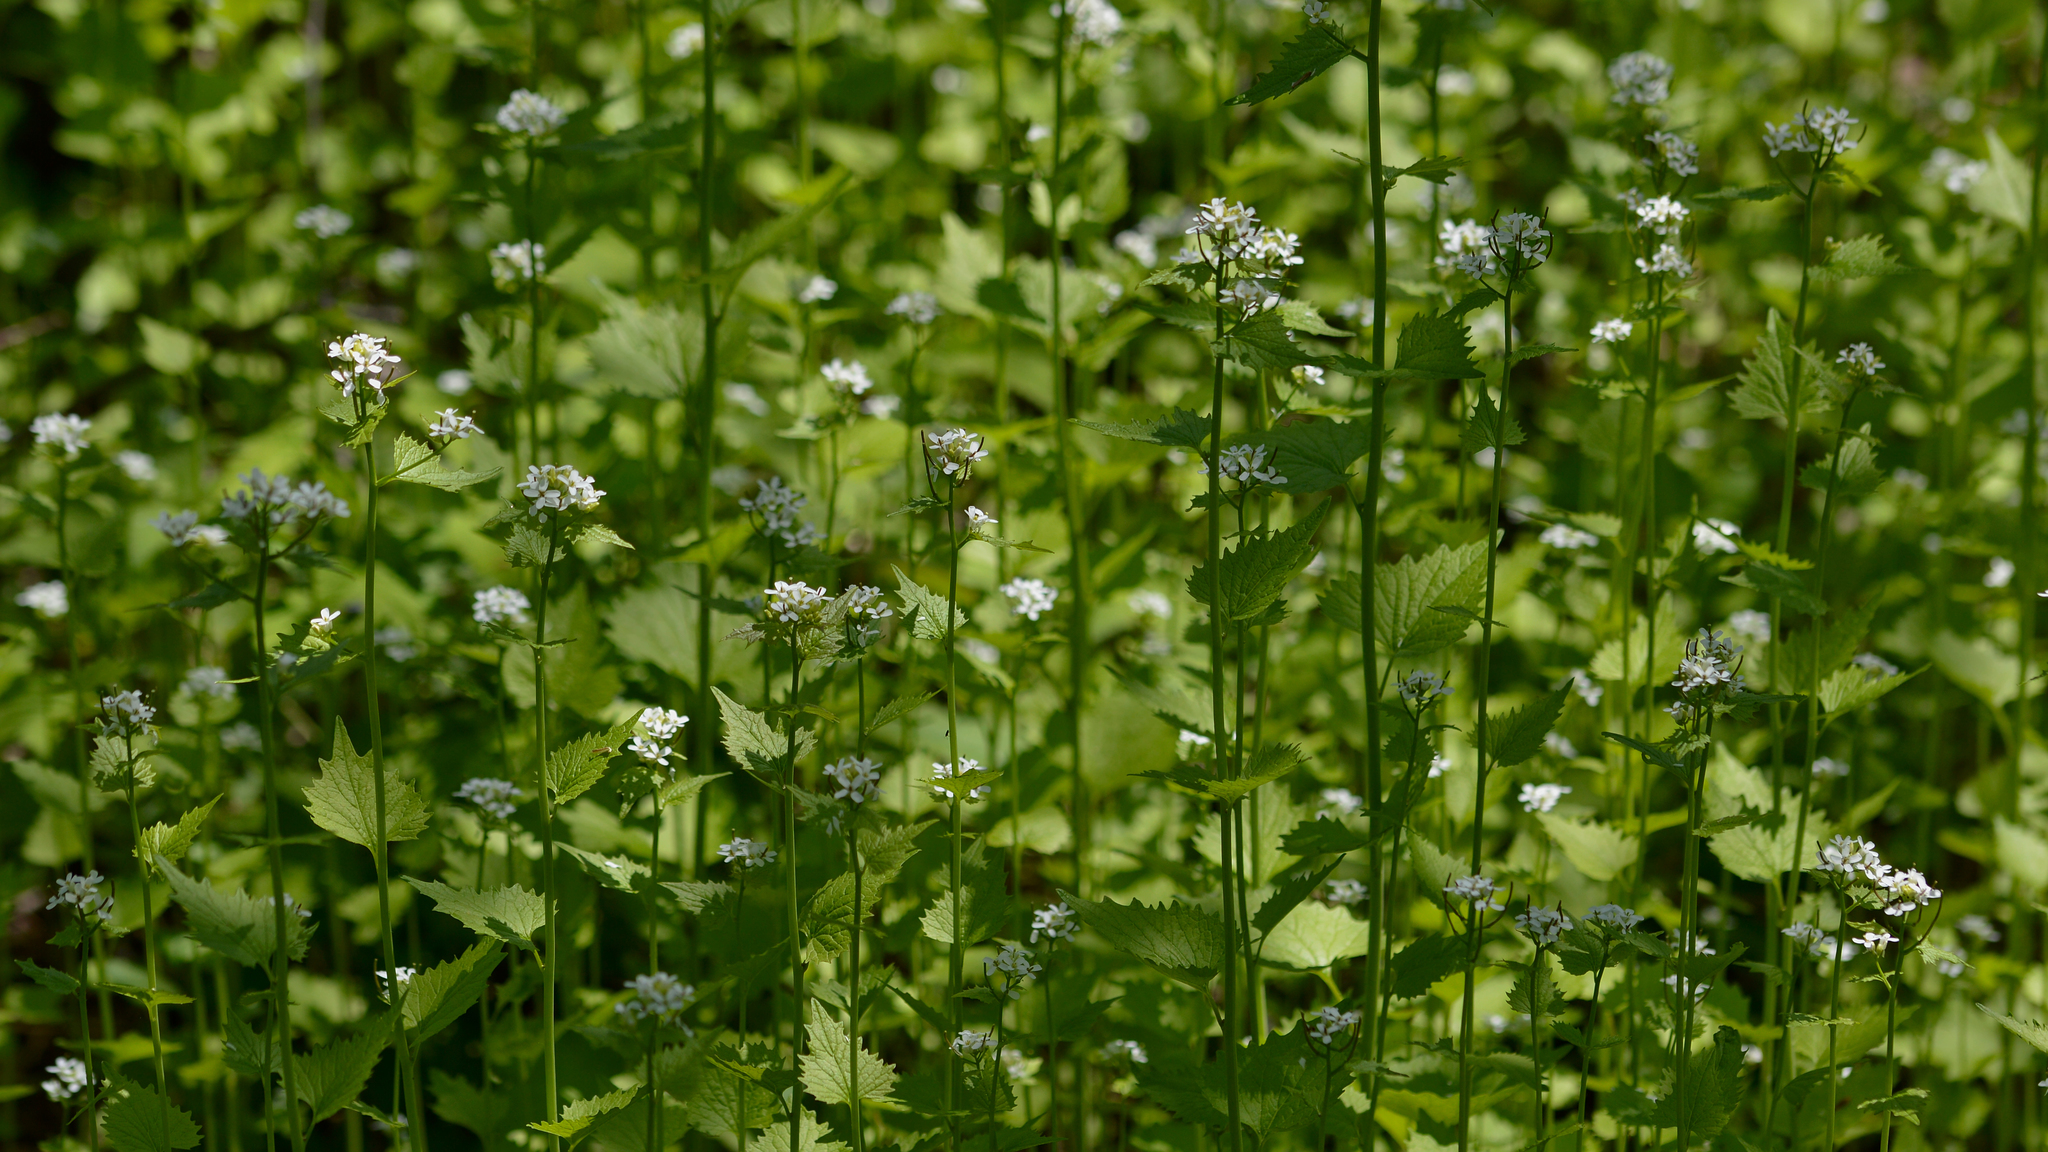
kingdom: Plantae
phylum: Tracheophyta
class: Magnoliopsida
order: Brassicales
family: Brassicaceae
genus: Alliaria
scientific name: Alliaria petiolata
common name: Garlic mustard
